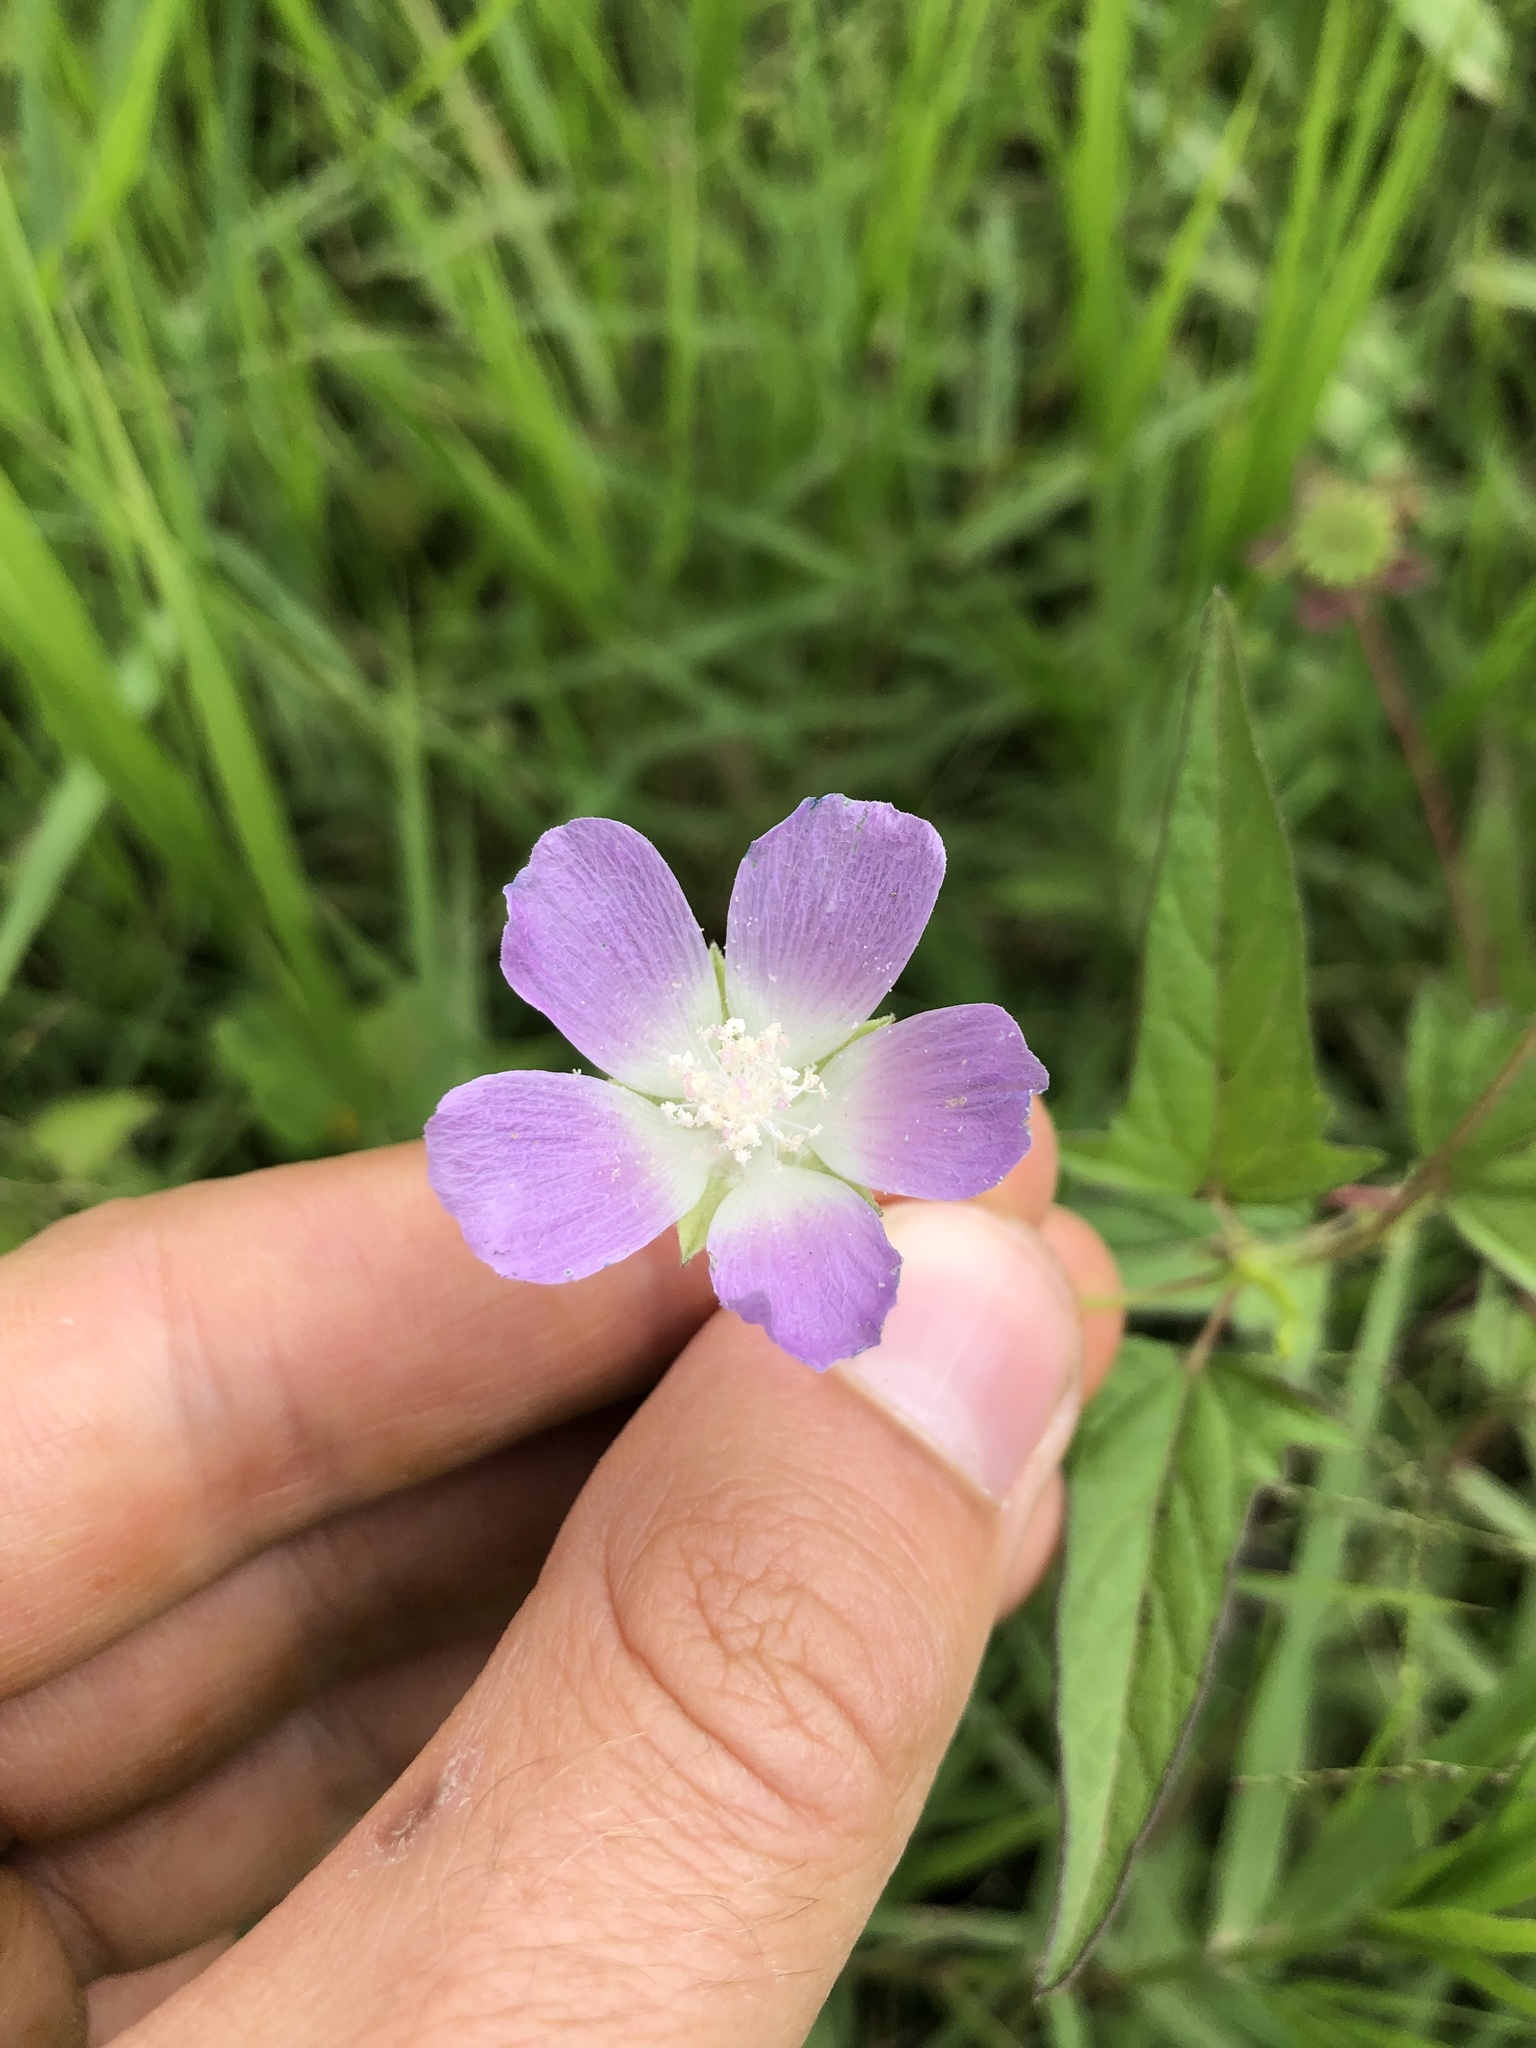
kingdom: Plantae
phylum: Tracheophyta
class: Magnoliopsida
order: Malvales
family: Malvaceae
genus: Anoda
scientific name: Anoda cristata
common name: Spurred anoda
